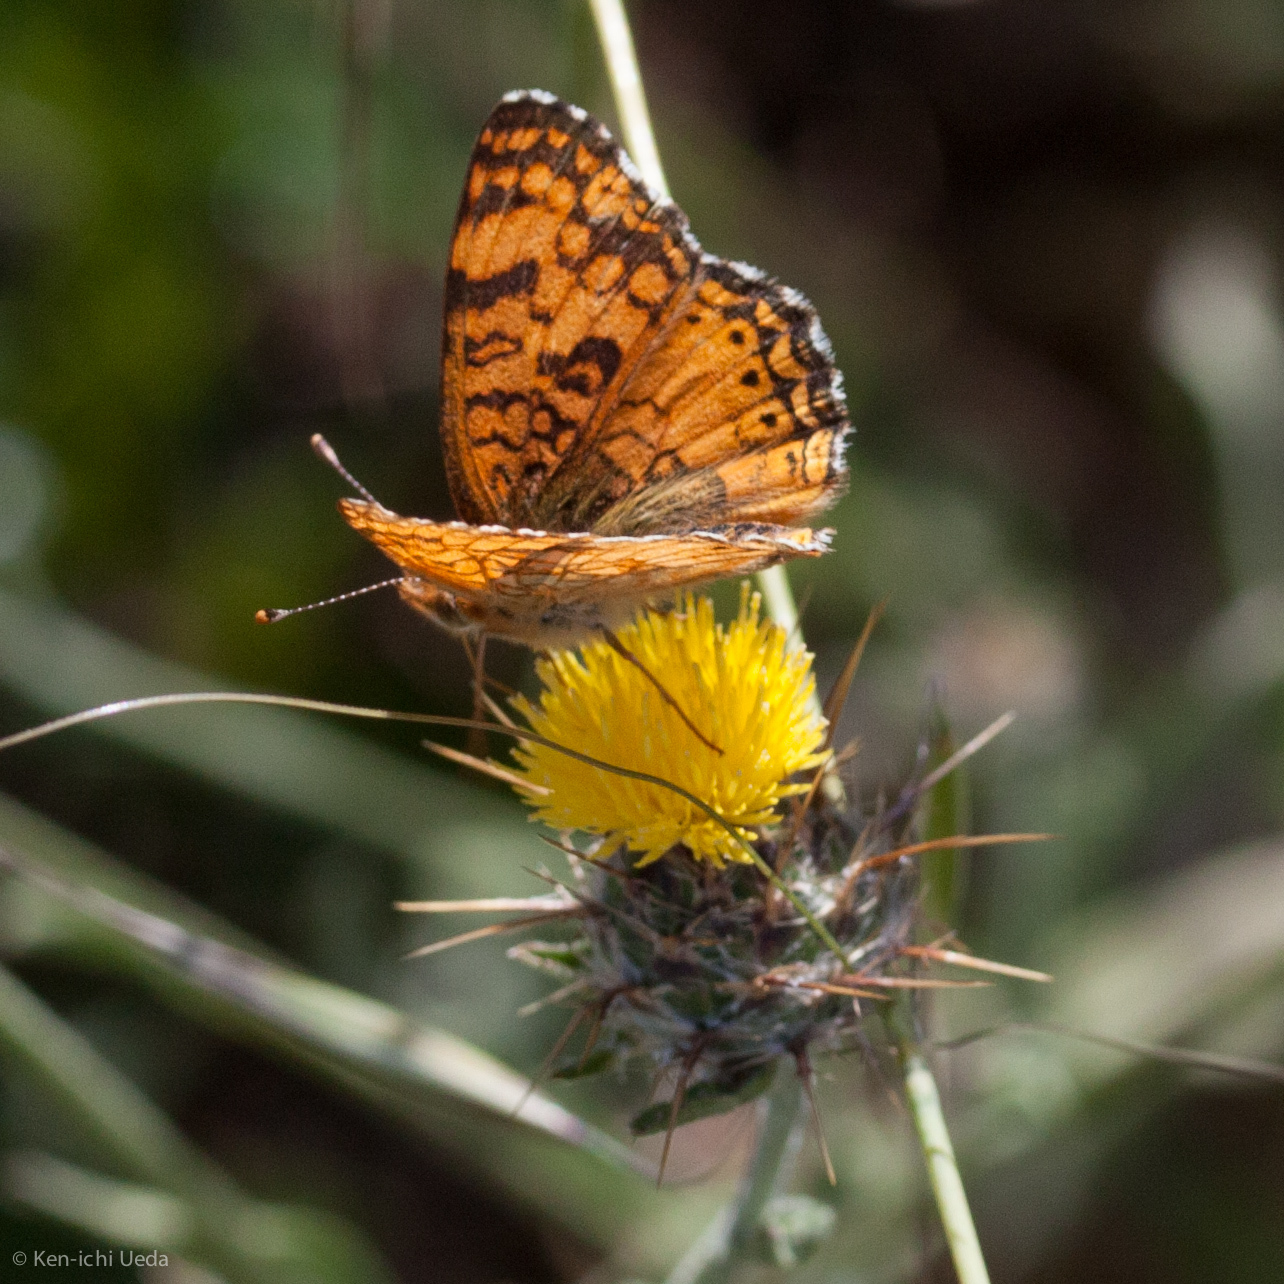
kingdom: Animalia
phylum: Arthropoda
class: Insecta
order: Lepidoptera
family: Nymphalidae
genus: Eresia
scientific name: Eresia aveyrona
